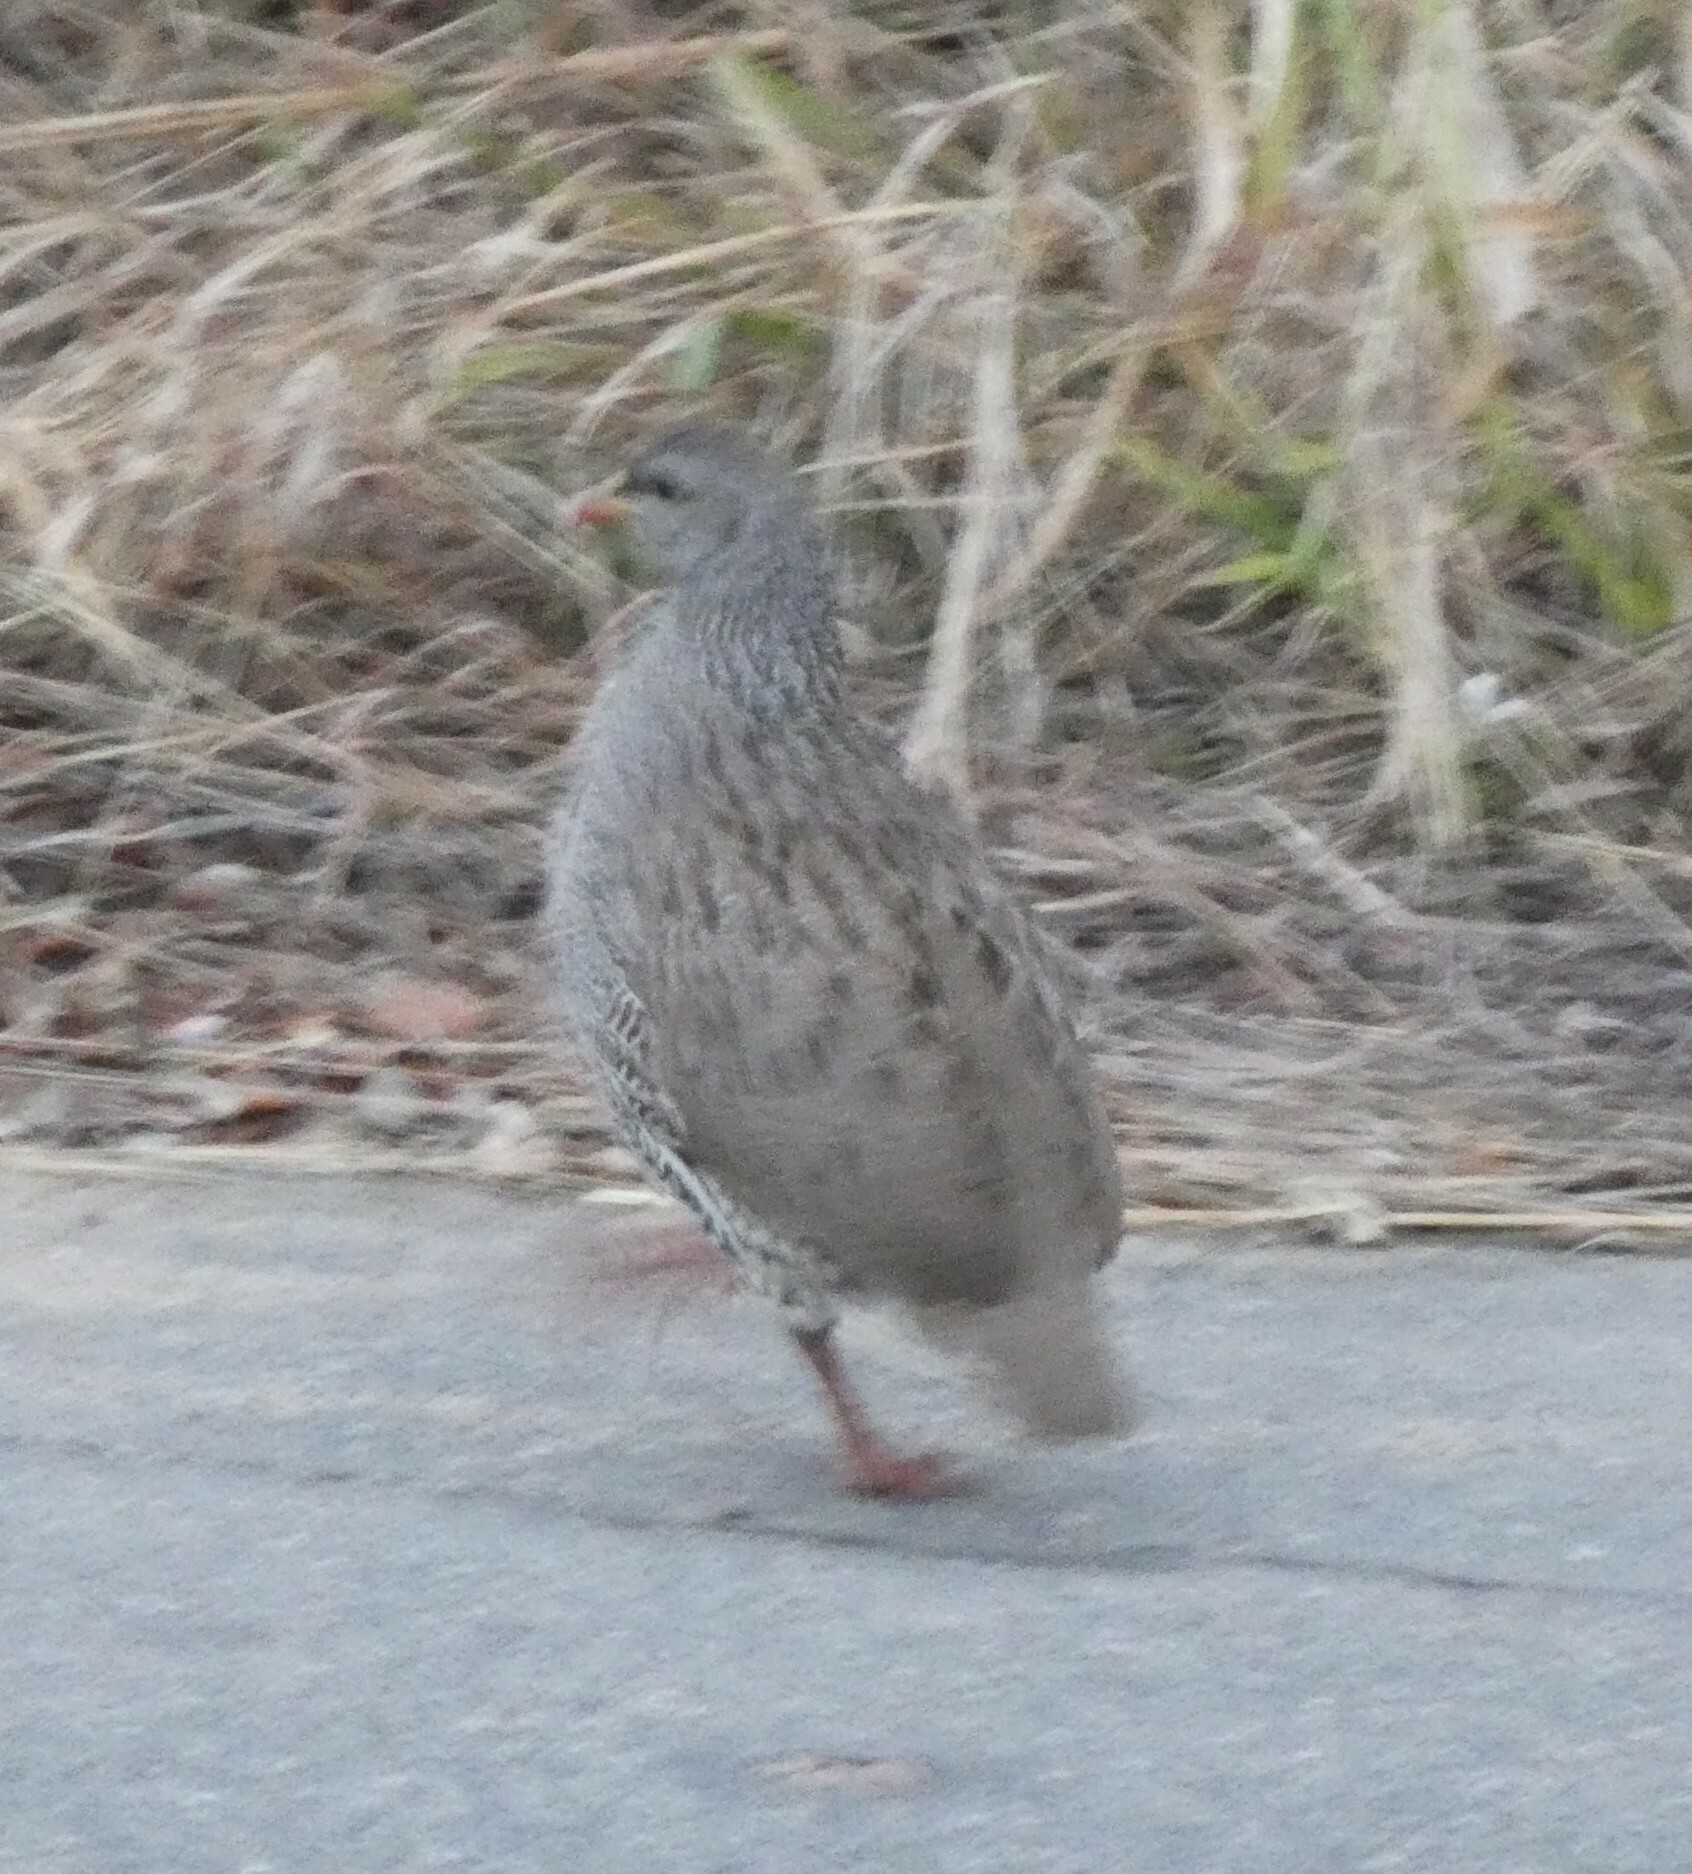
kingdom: Animalia
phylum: Chordata
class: Aves
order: Galliformes
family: Phasianidae
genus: Pternistis
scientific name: Pternistis natalensis
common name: Natal spurfowl
